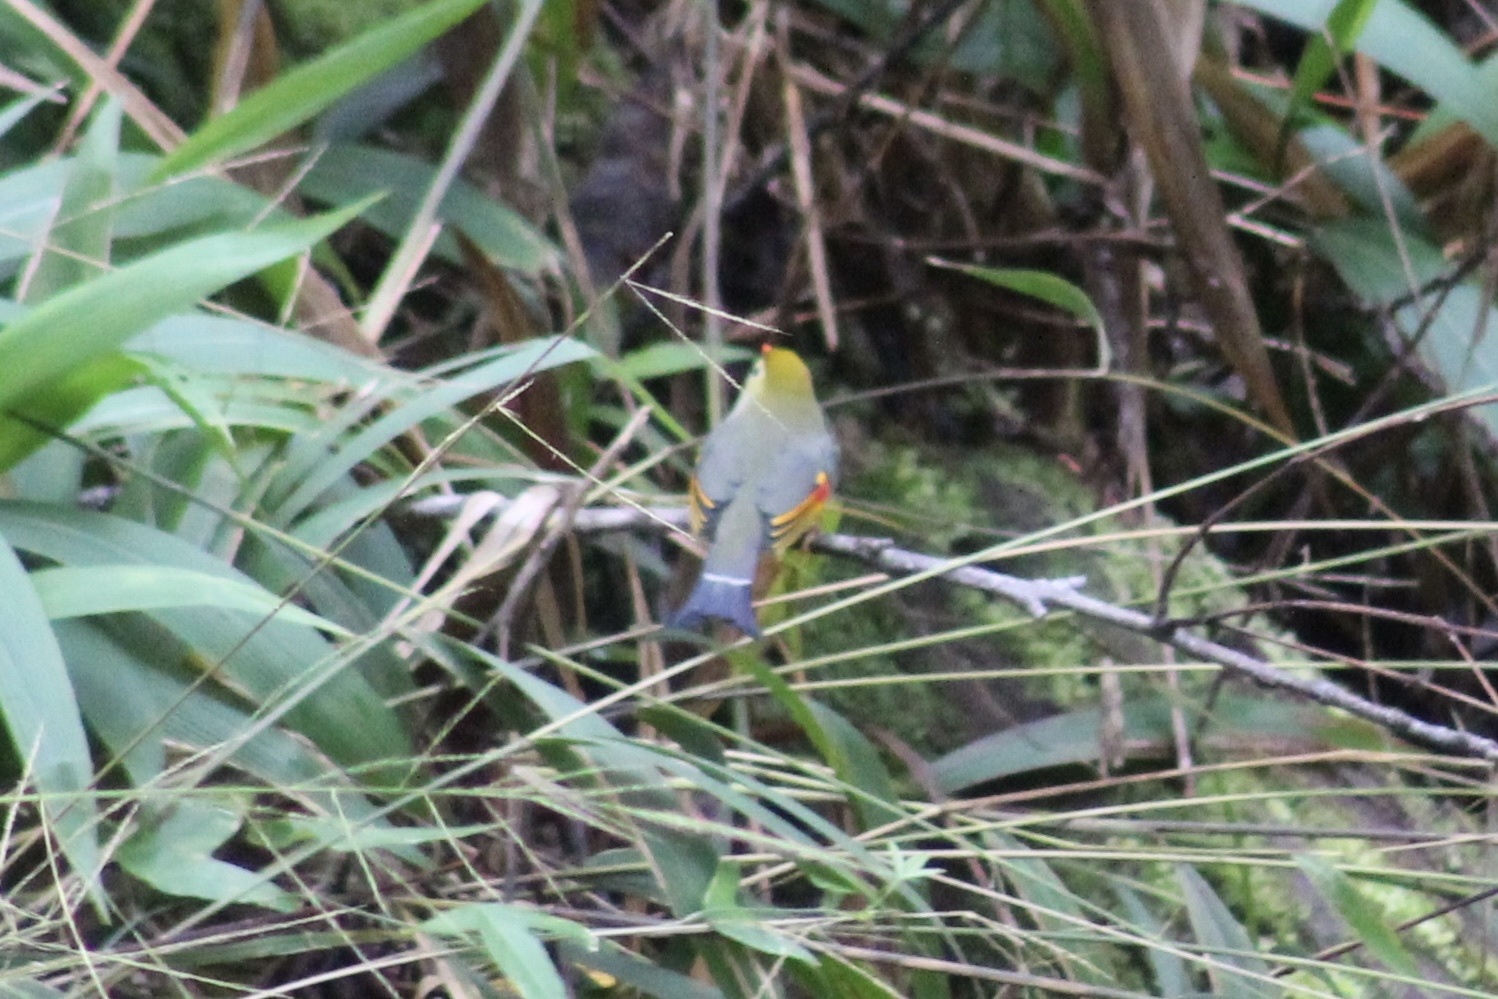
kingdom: Animalia
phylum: Chordata
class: Aves
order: Passeriformes
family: Leiothrichidae
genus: Leiothrix
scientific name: Leiothrix lutea
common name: Red-billed leiothrix
